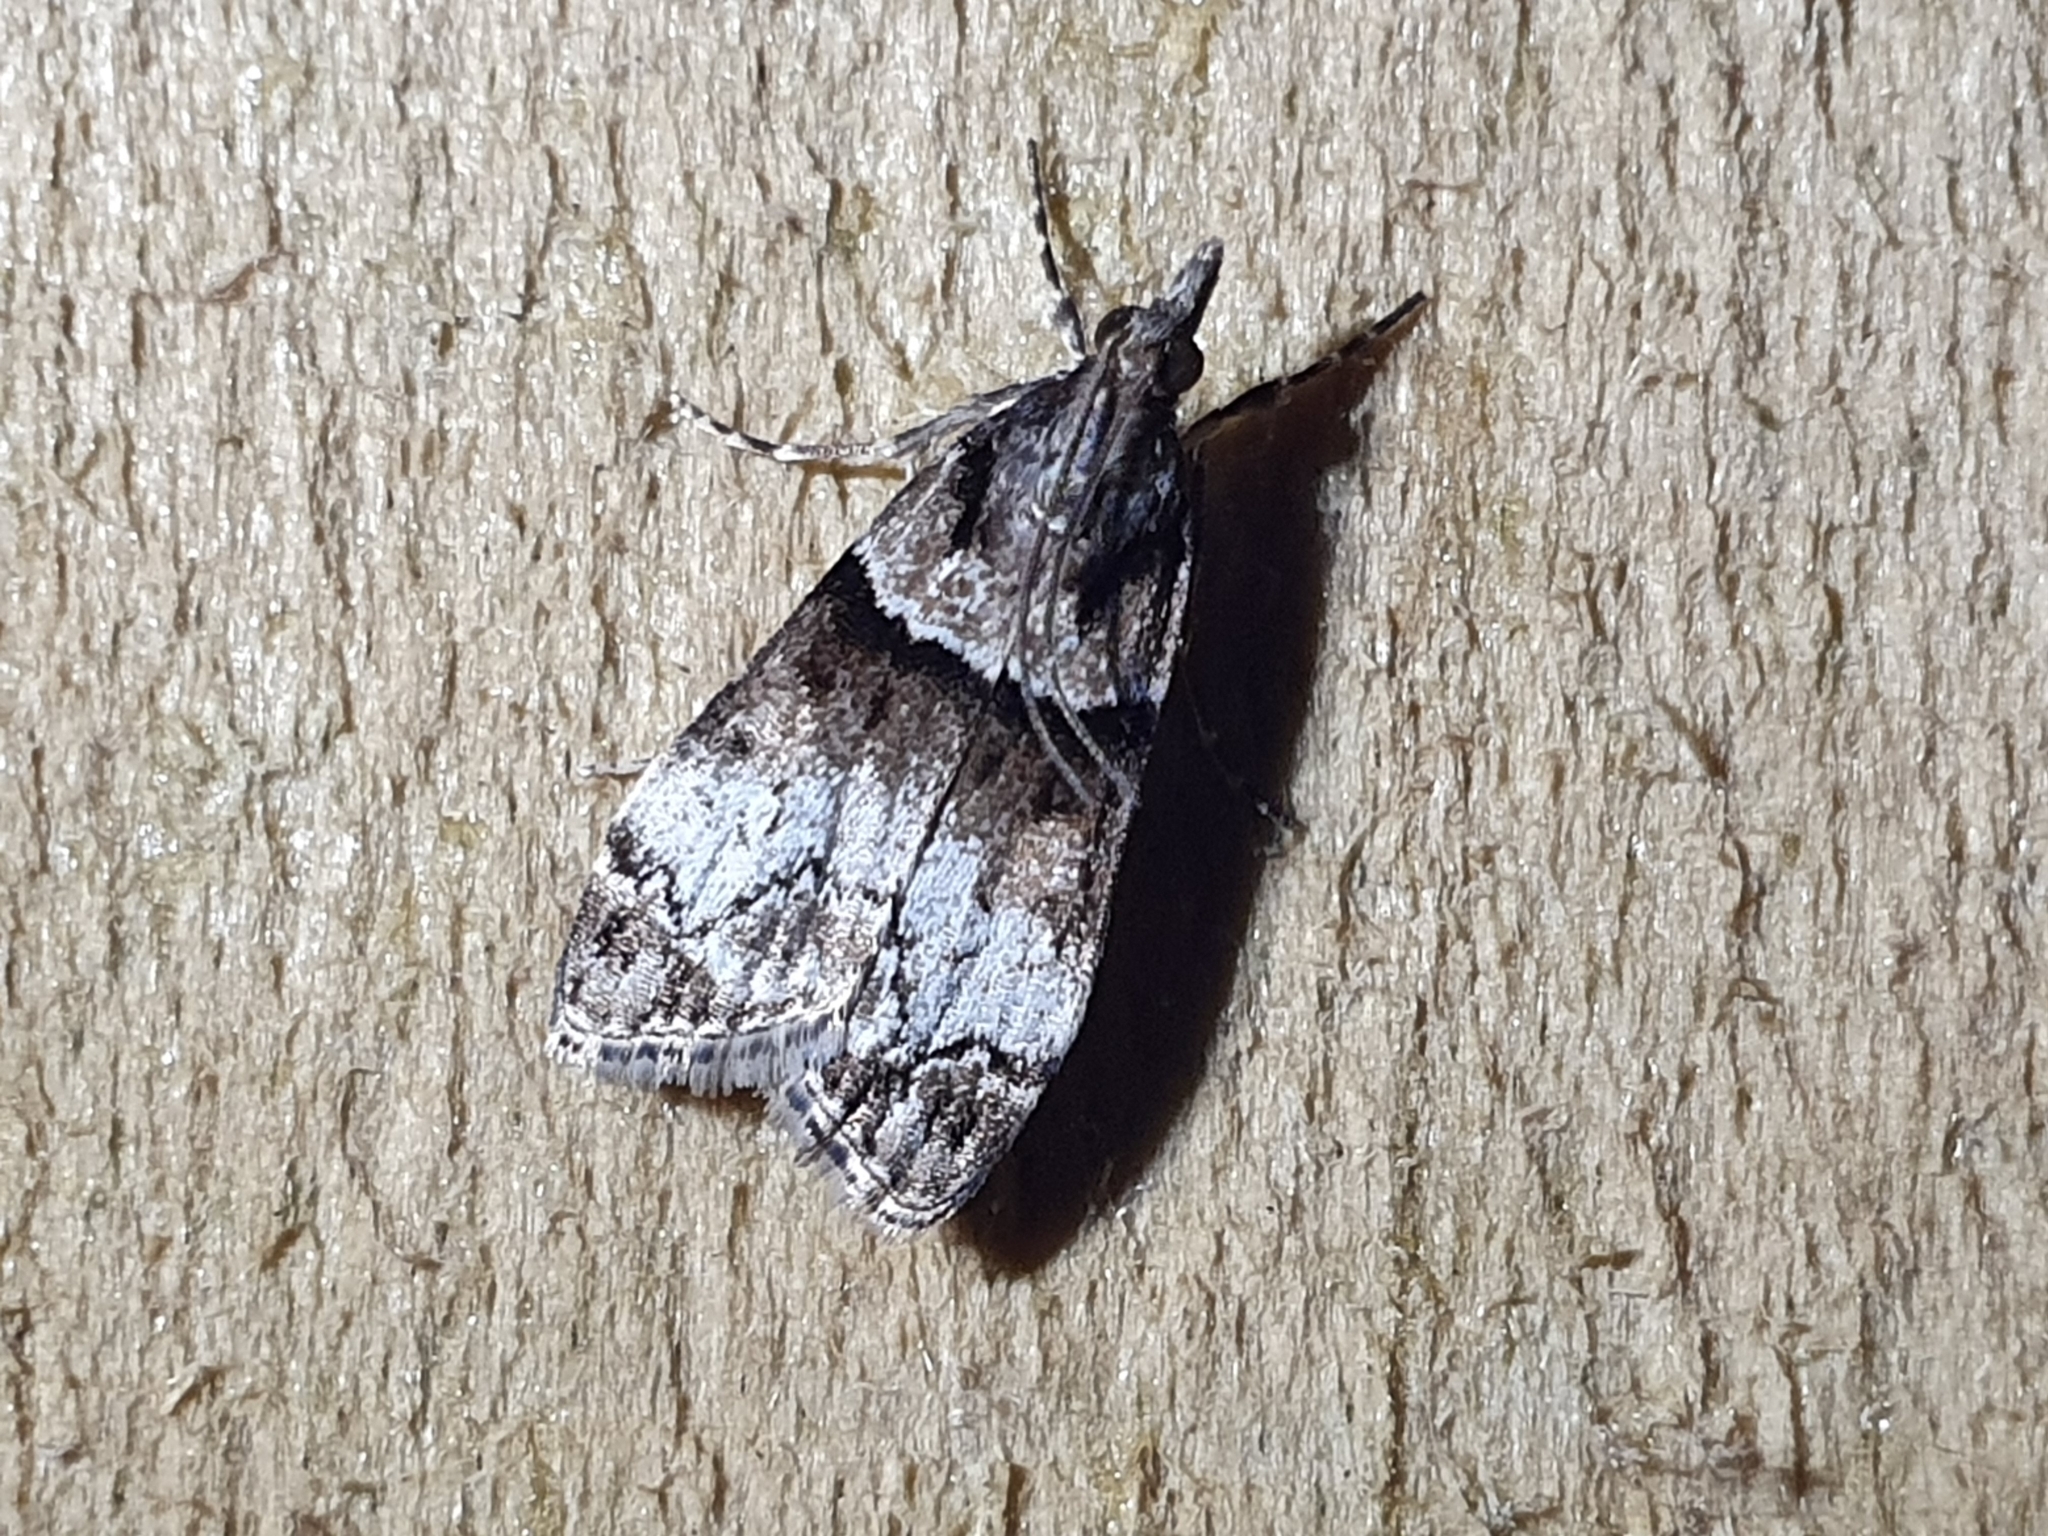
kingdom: Animalia
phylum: Arthropoda
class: Insecta
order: Lepidoptera
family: Crambidae
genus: Eudonia
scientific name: Eudonia colpota
